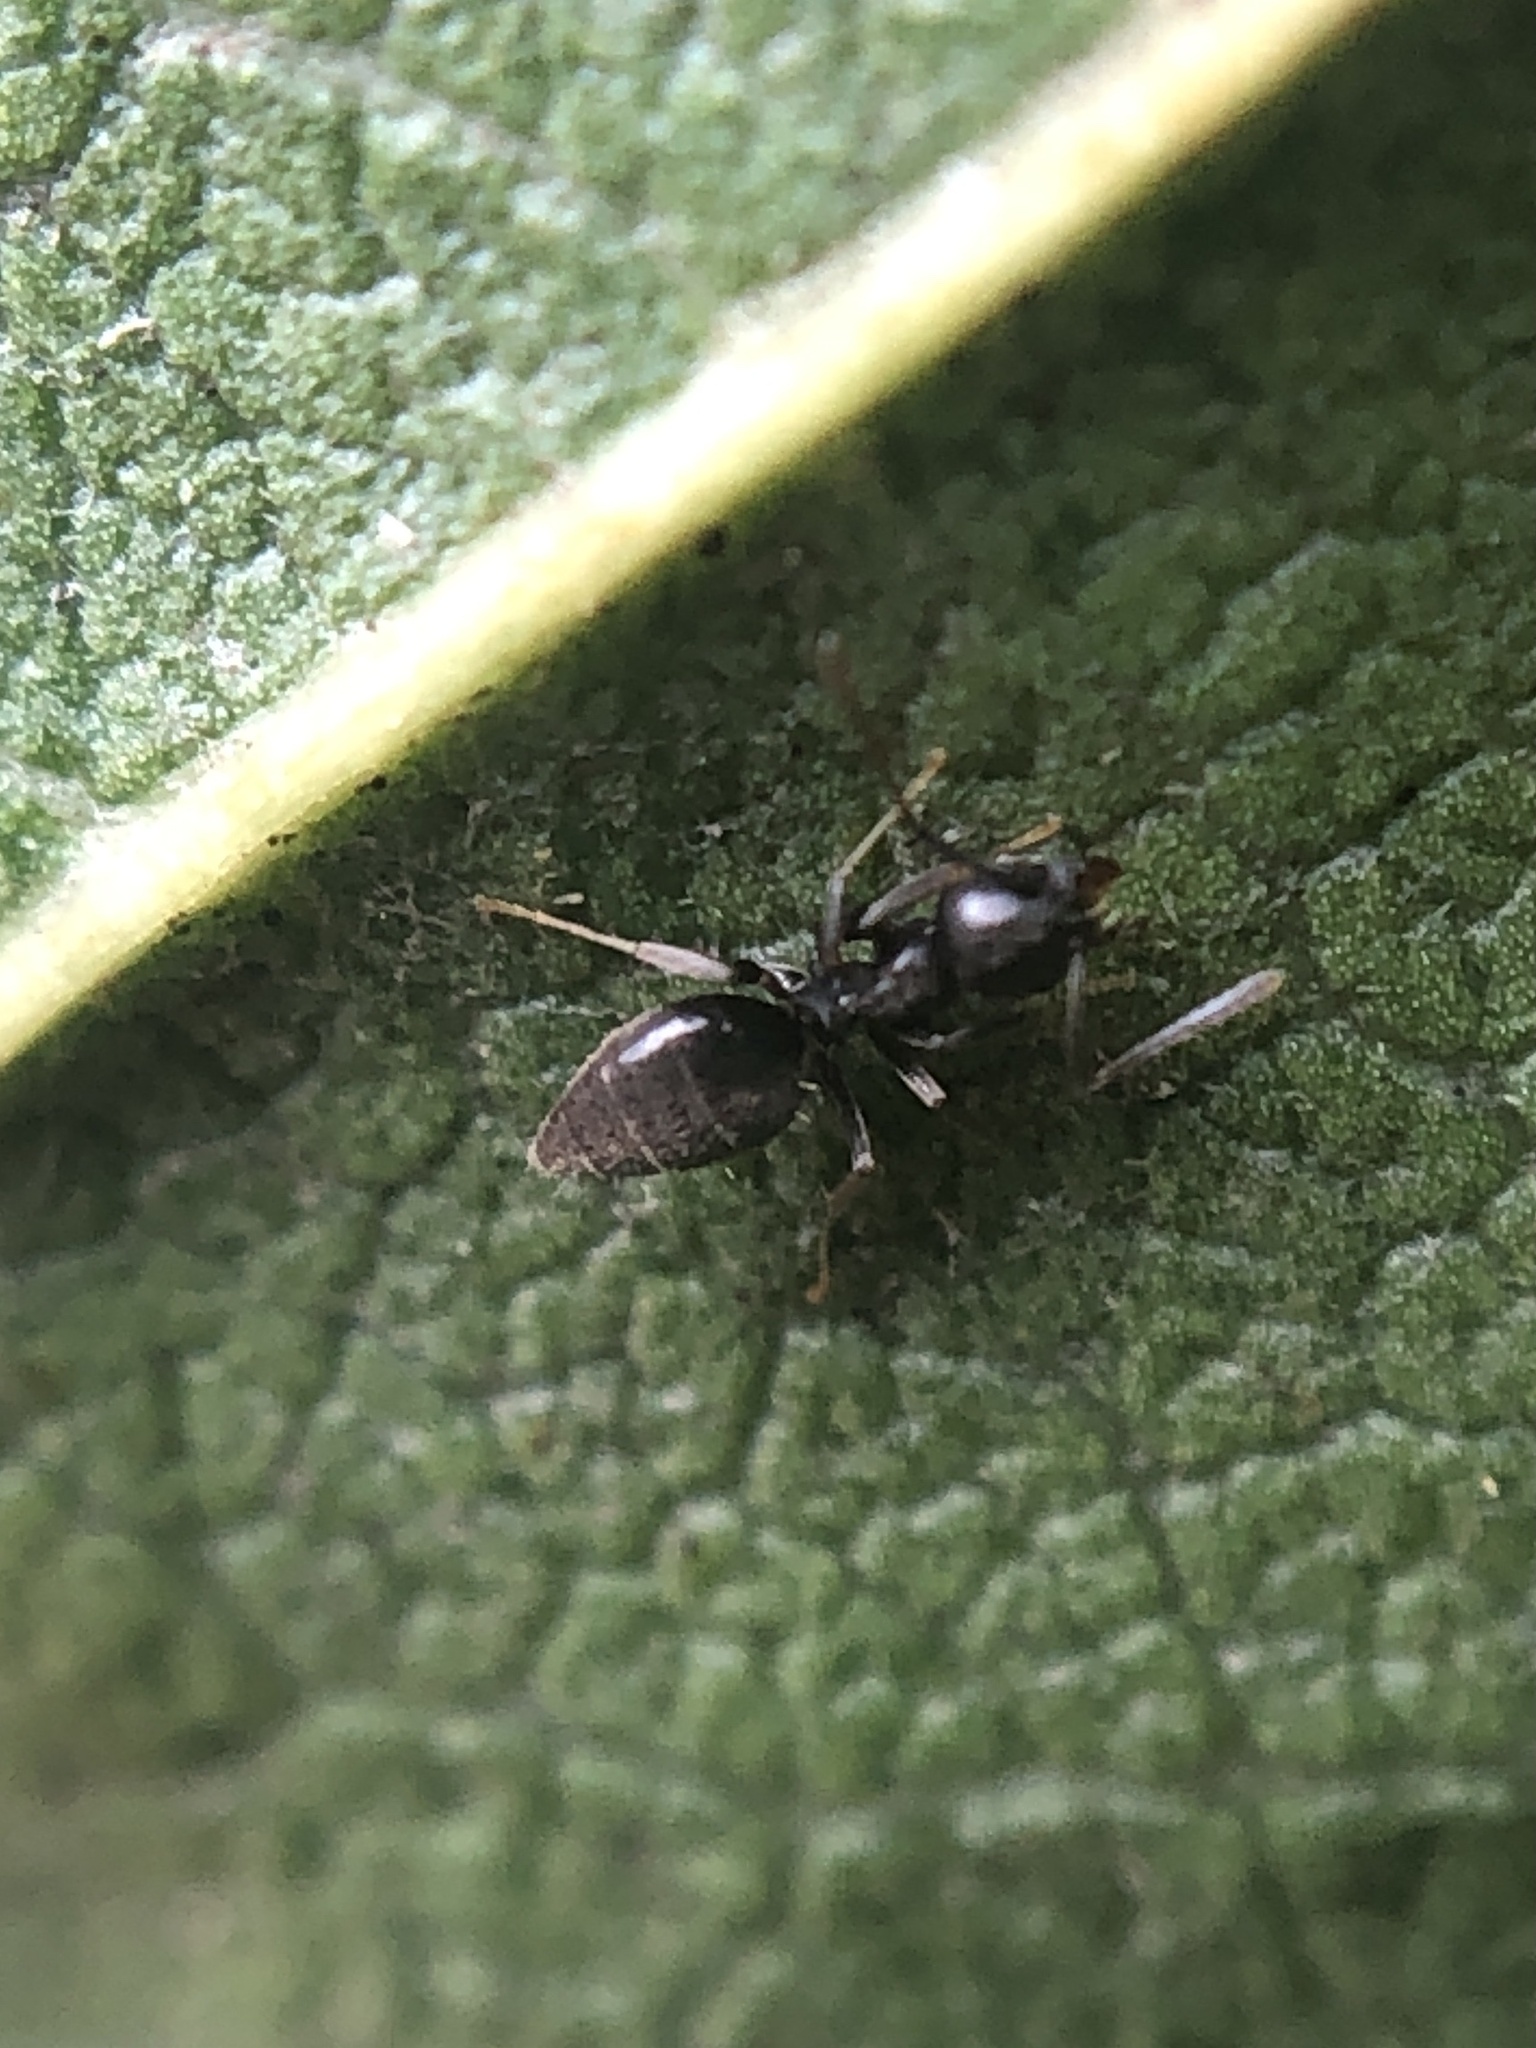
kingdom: Animalia
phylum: Arthropoda
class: Insecta
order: Hymenoptera
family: Formicidae
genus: Technomyrmex
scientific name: Technomyrmex difficilis
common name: Ant
